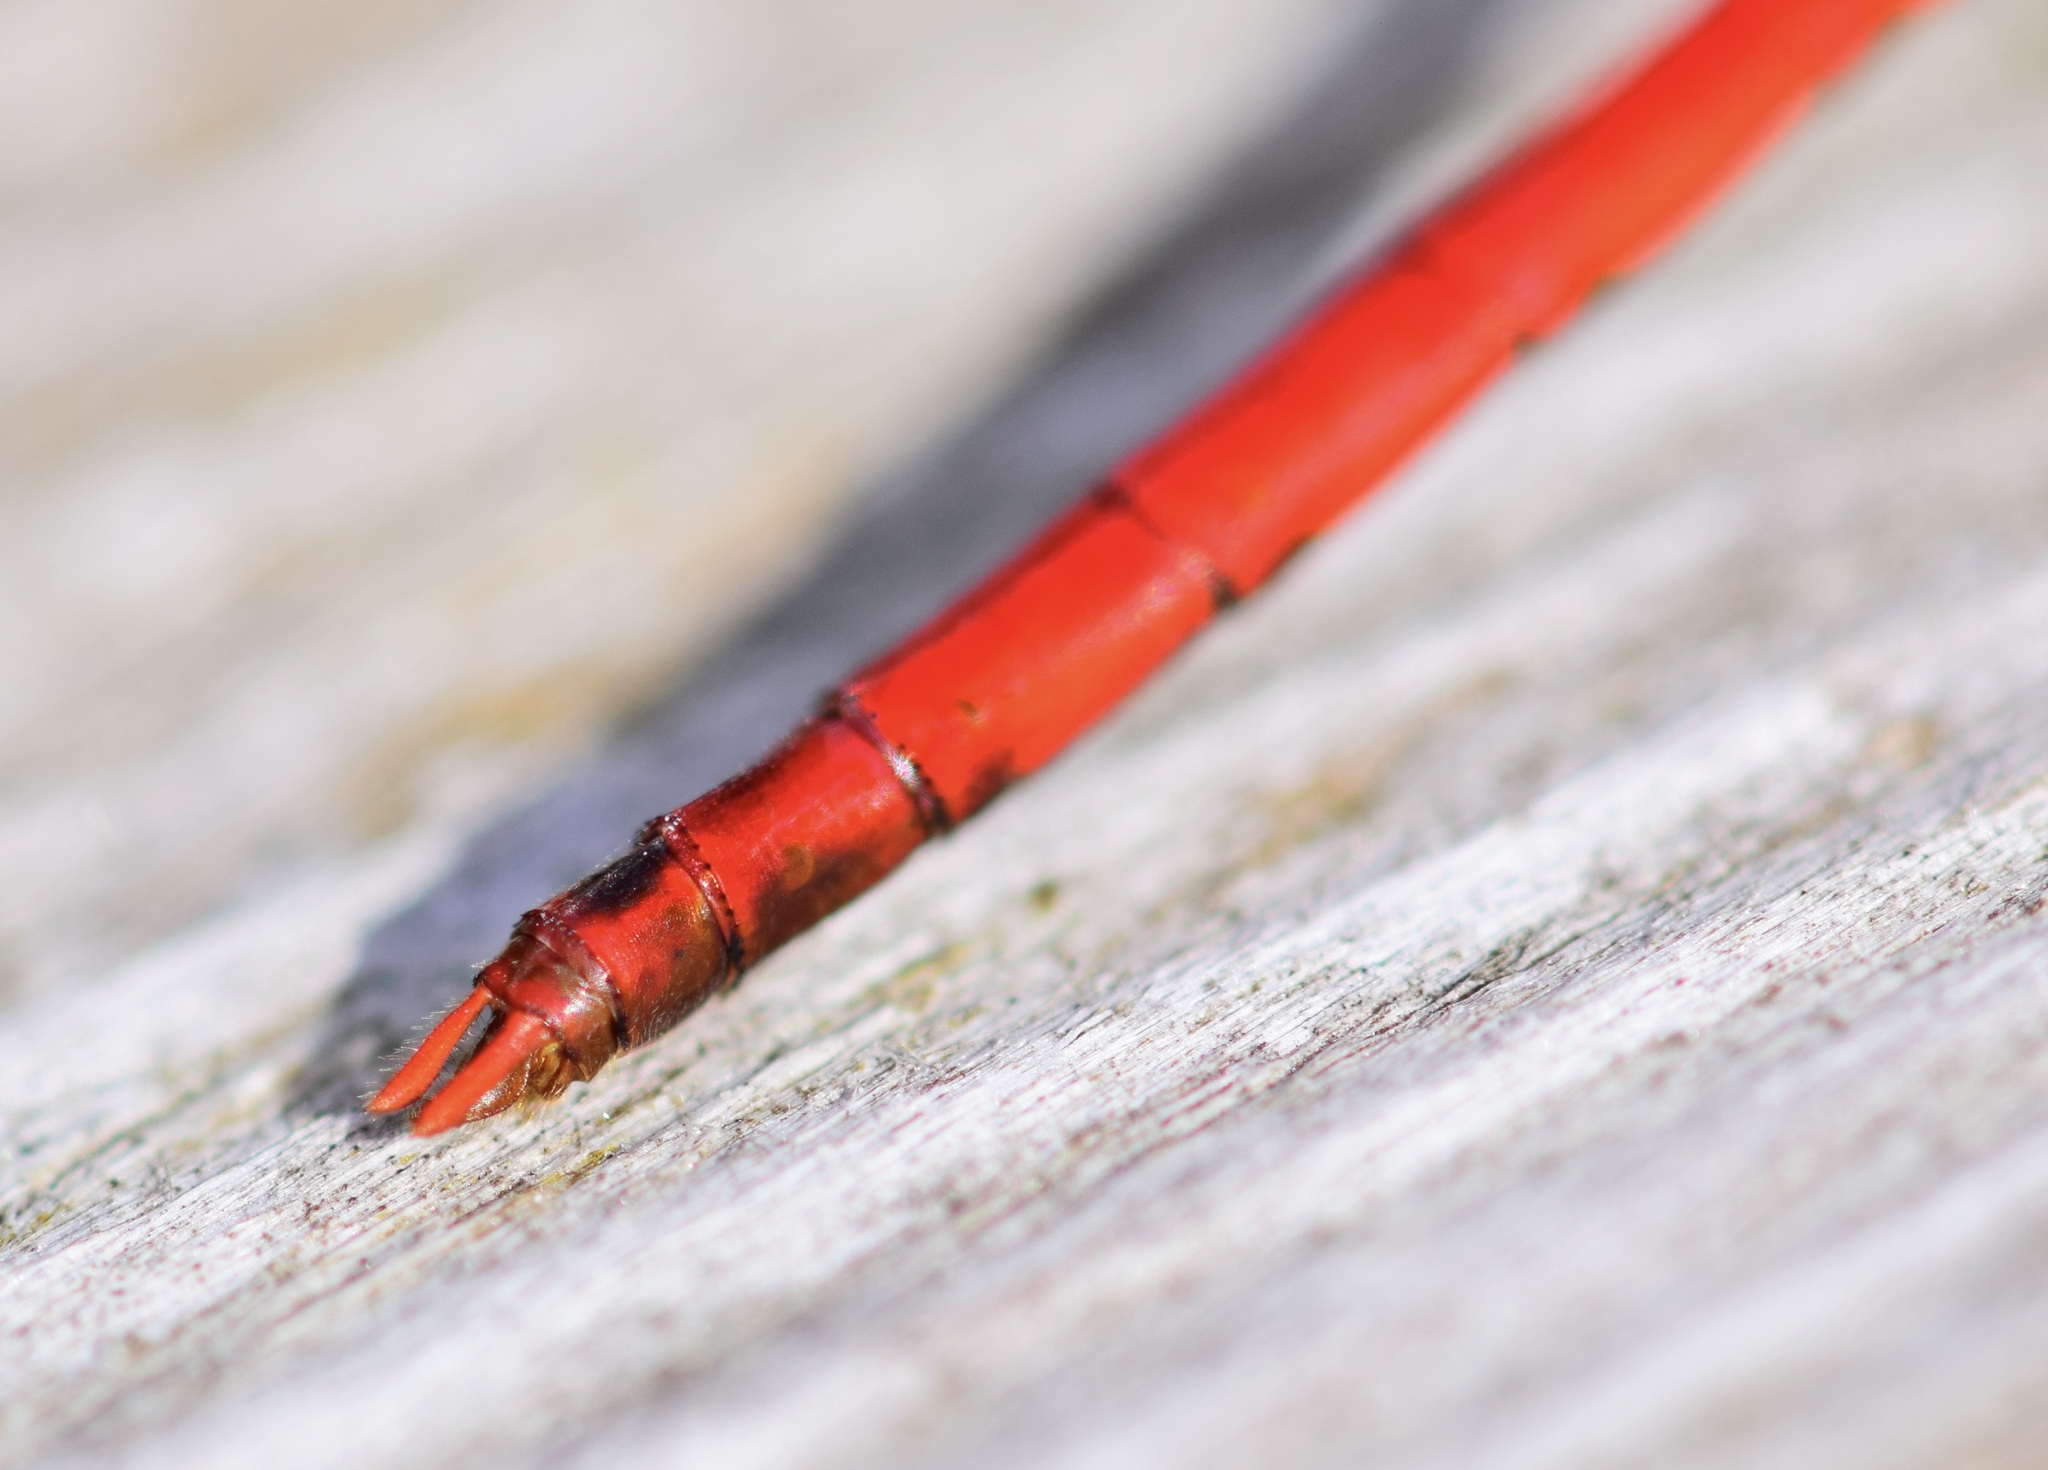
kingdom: Animalia
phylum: Arthropoda
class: Insecta
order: Odonata
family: Libellulidae
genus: Sympetrum
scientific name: Sympetrum vicinum
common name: Autumn meadowhawk
